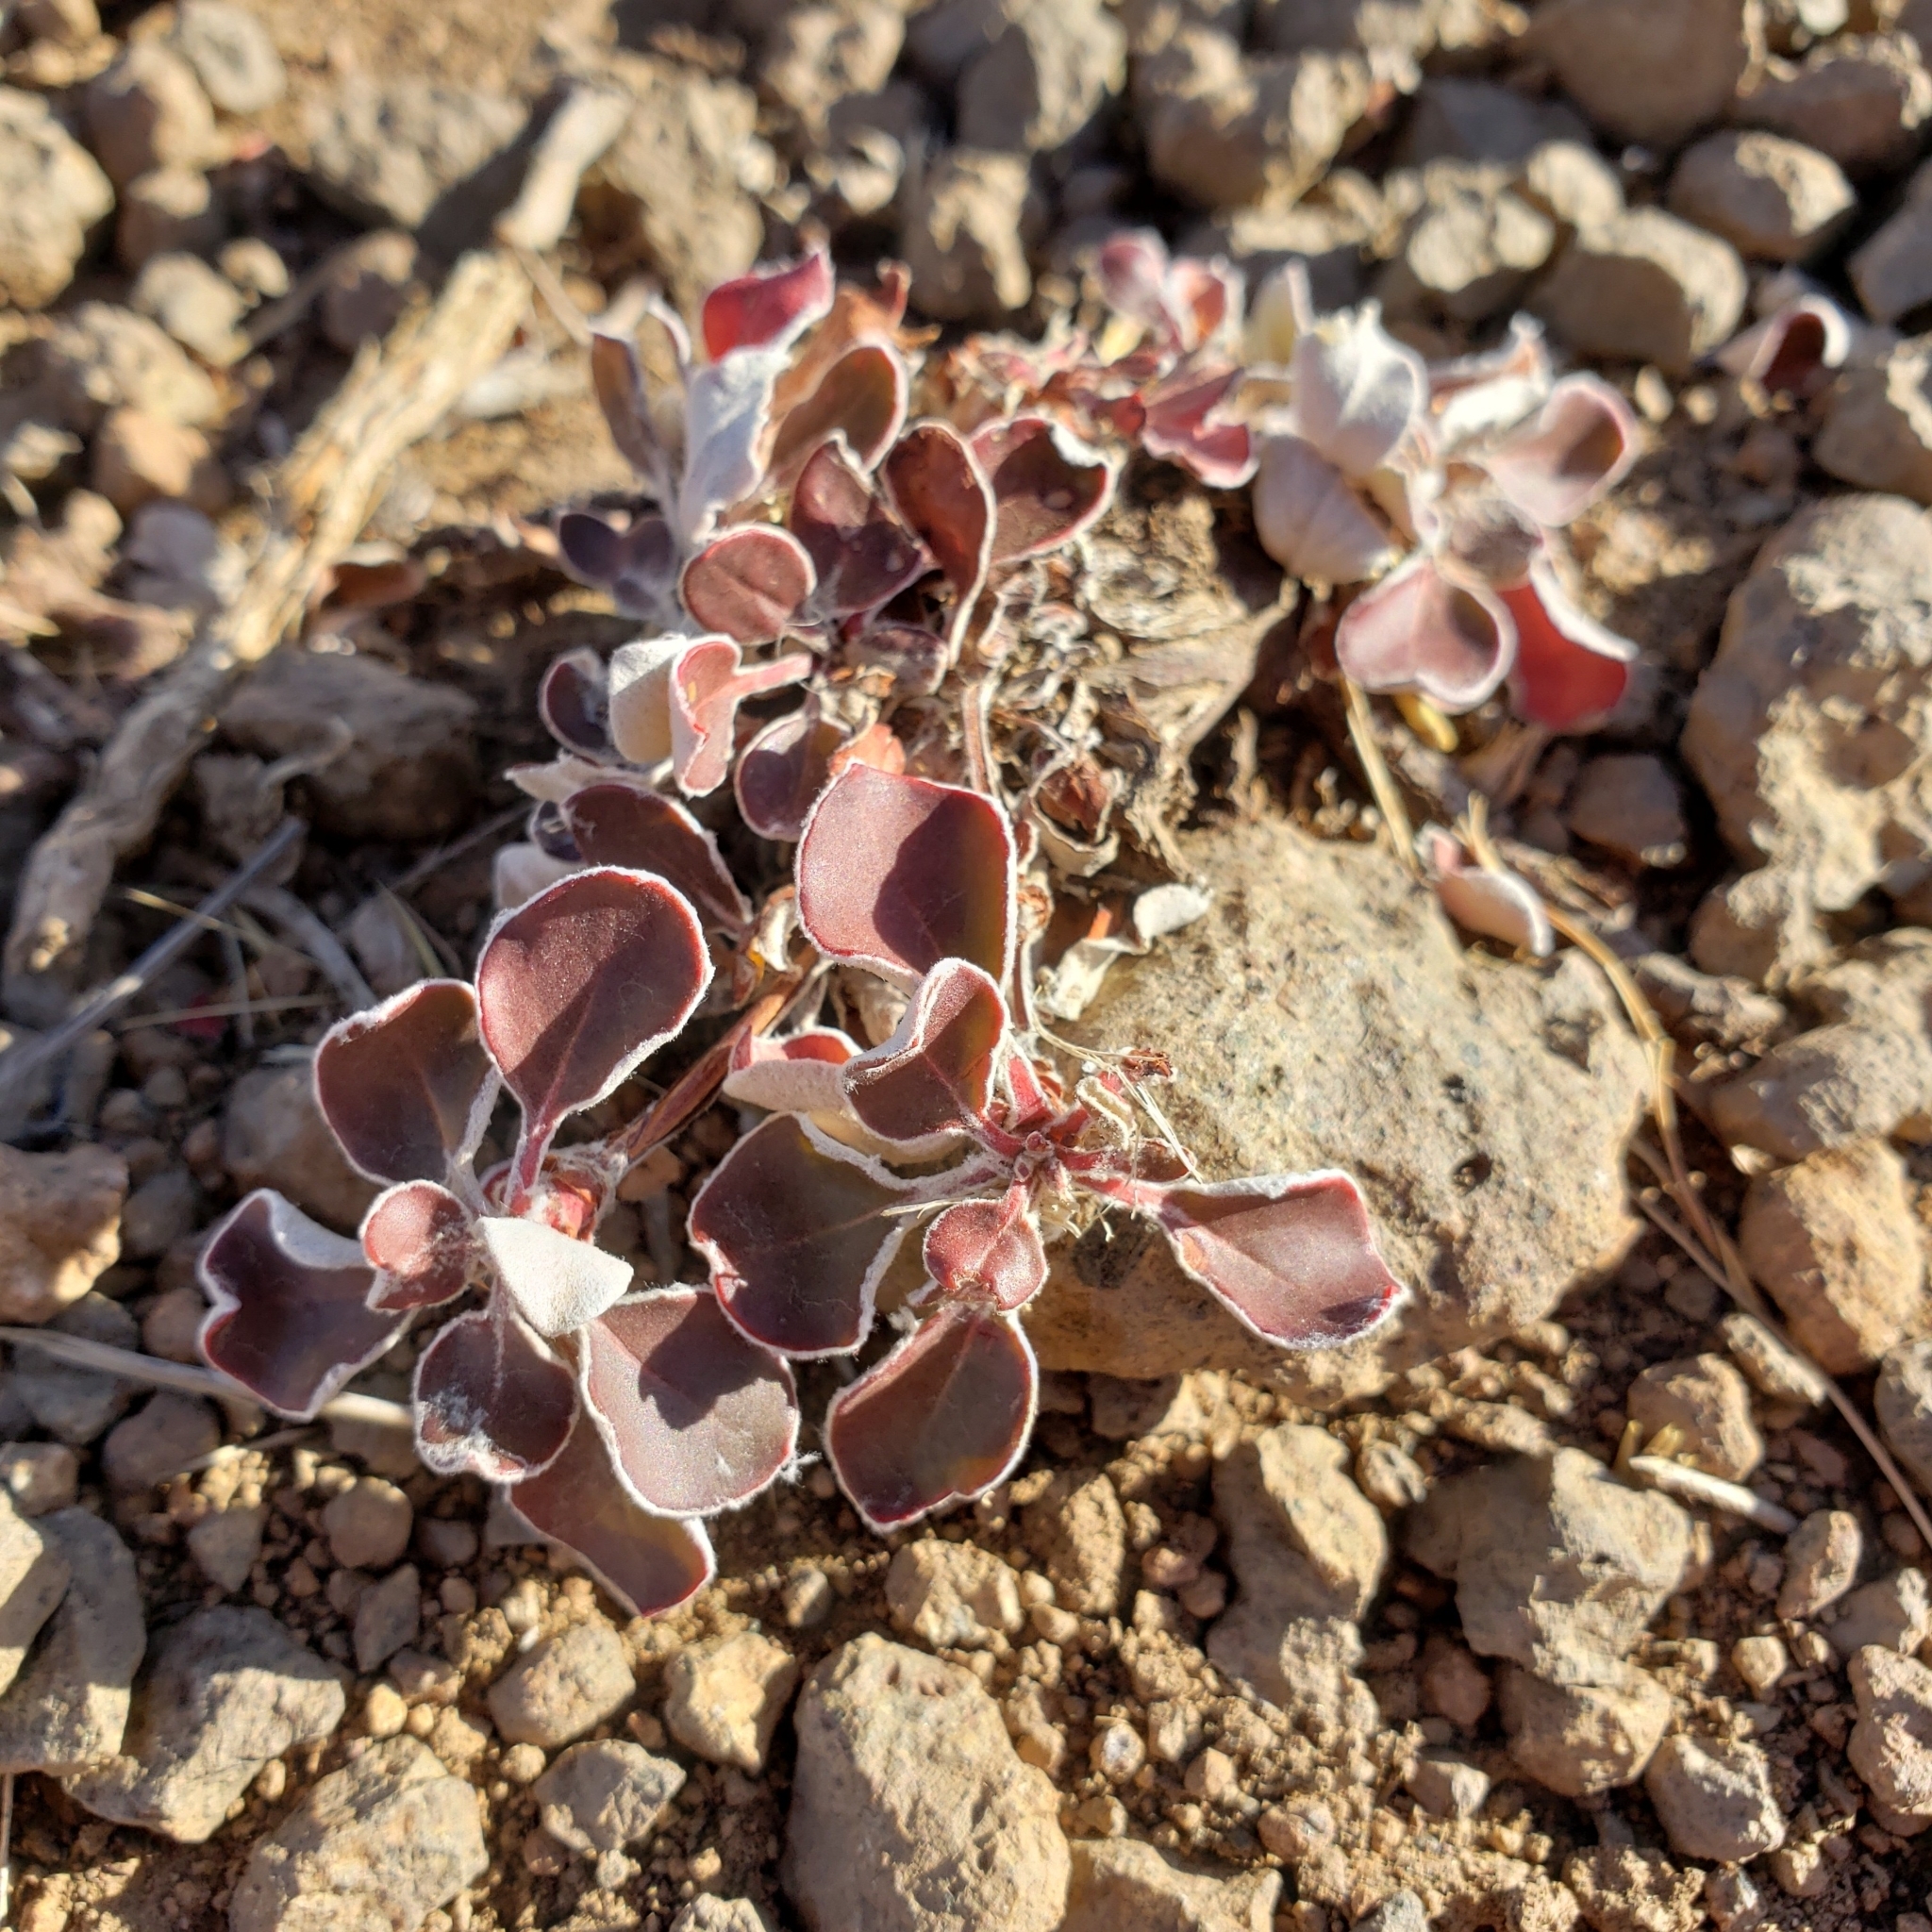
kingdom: Plantae
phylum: Tracheophyta
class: Magnoliopsida
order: Caryophyllales
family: Polygonaceae
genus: Eriogonum
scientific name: Eriogonum
